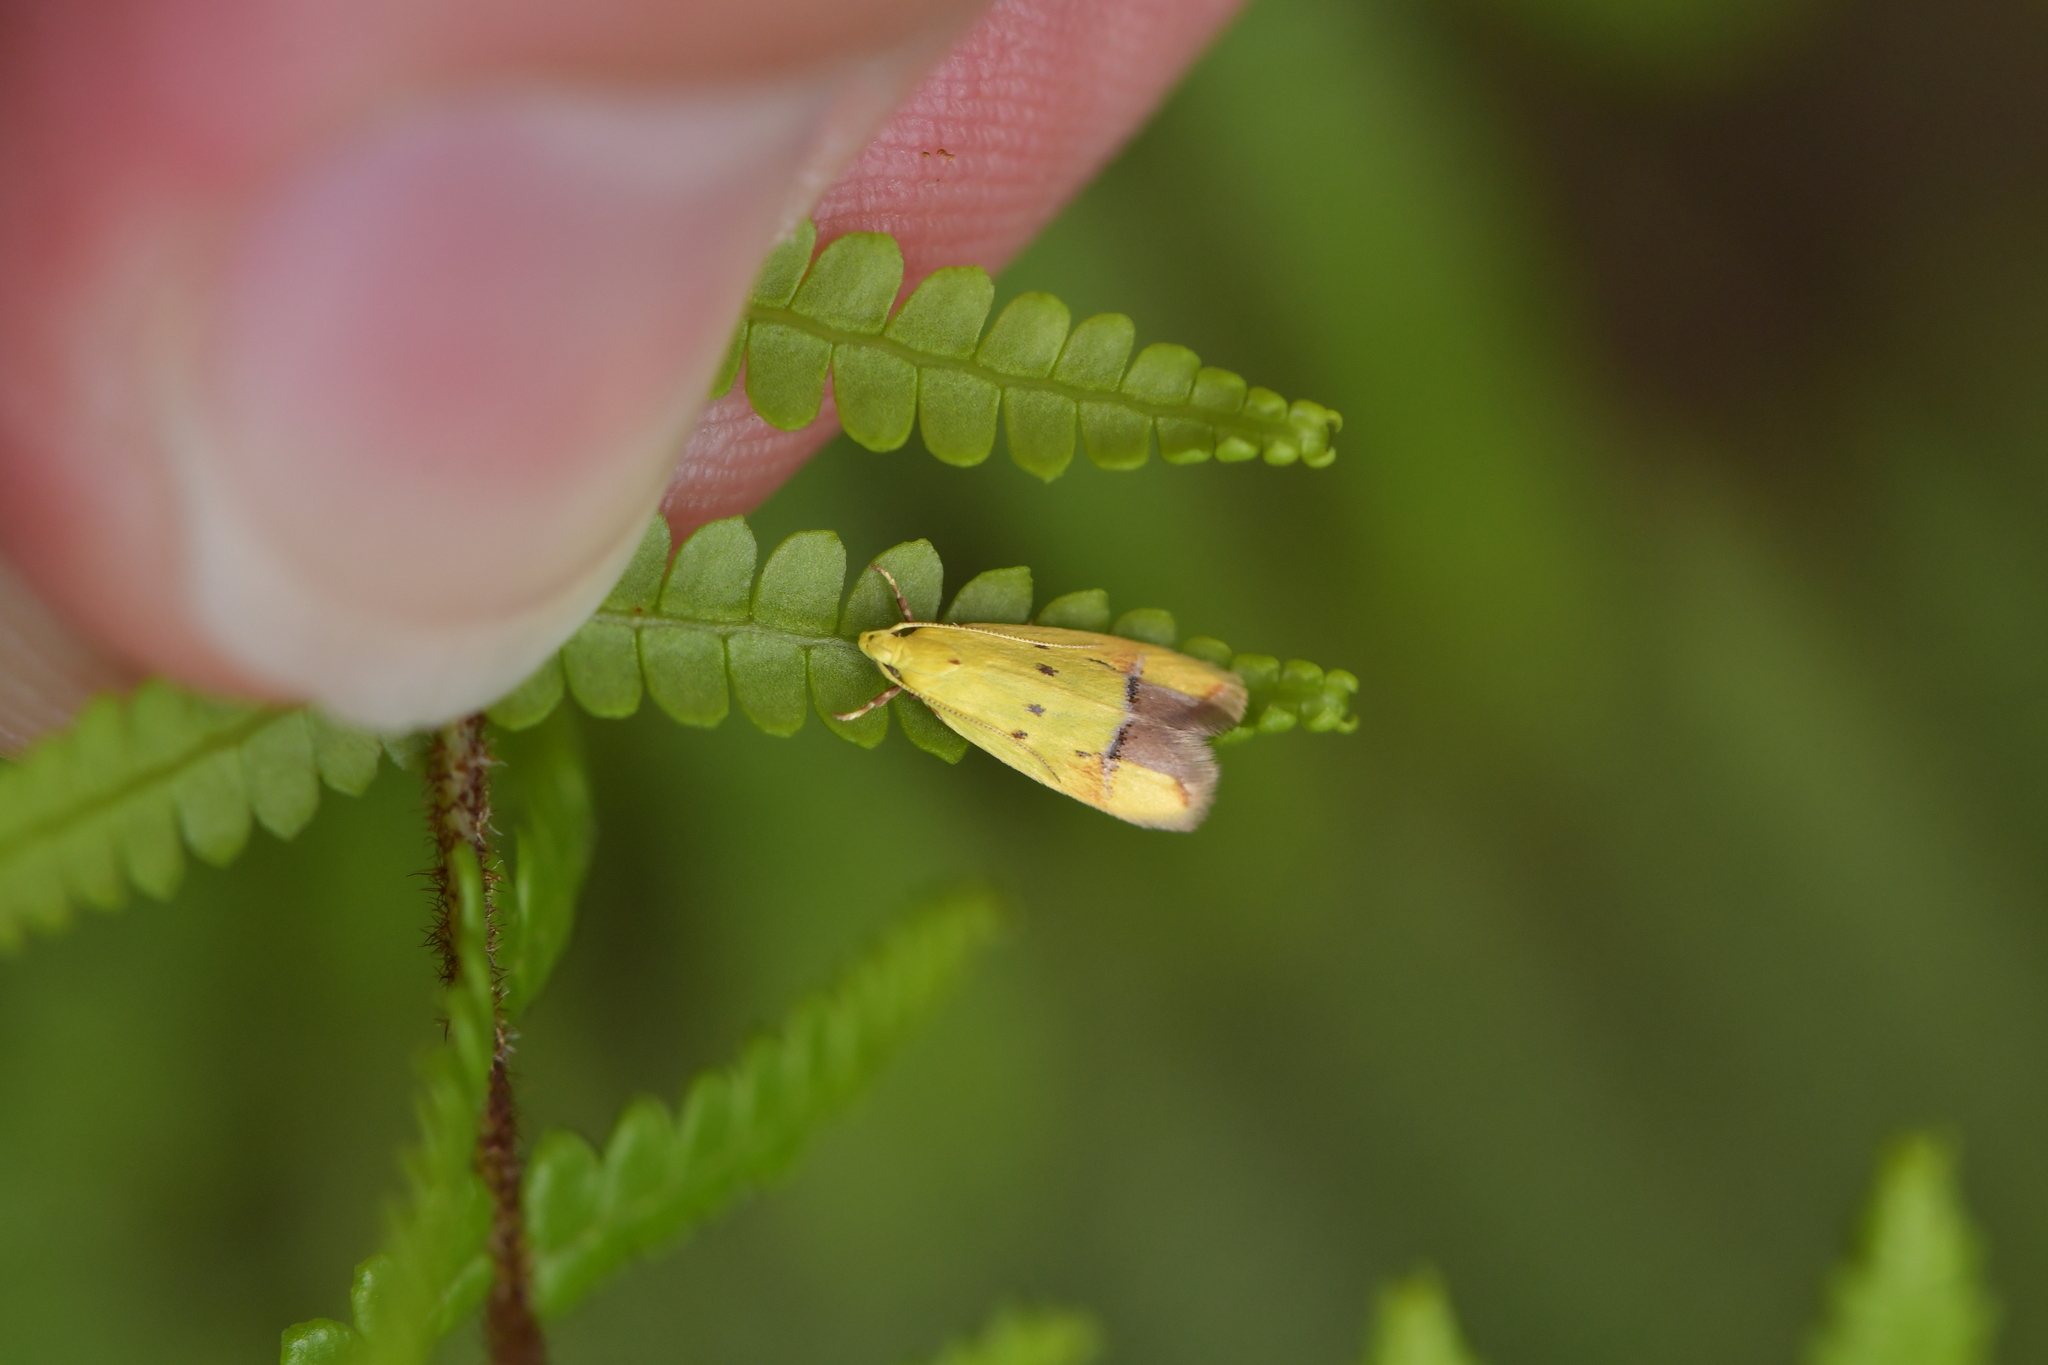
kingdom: Animalia
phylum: Arthropoda
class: Insecta
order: Lepidoptera
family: Oecophoridae
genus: Gymnobathra
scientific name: Gymnobathra flavidella
